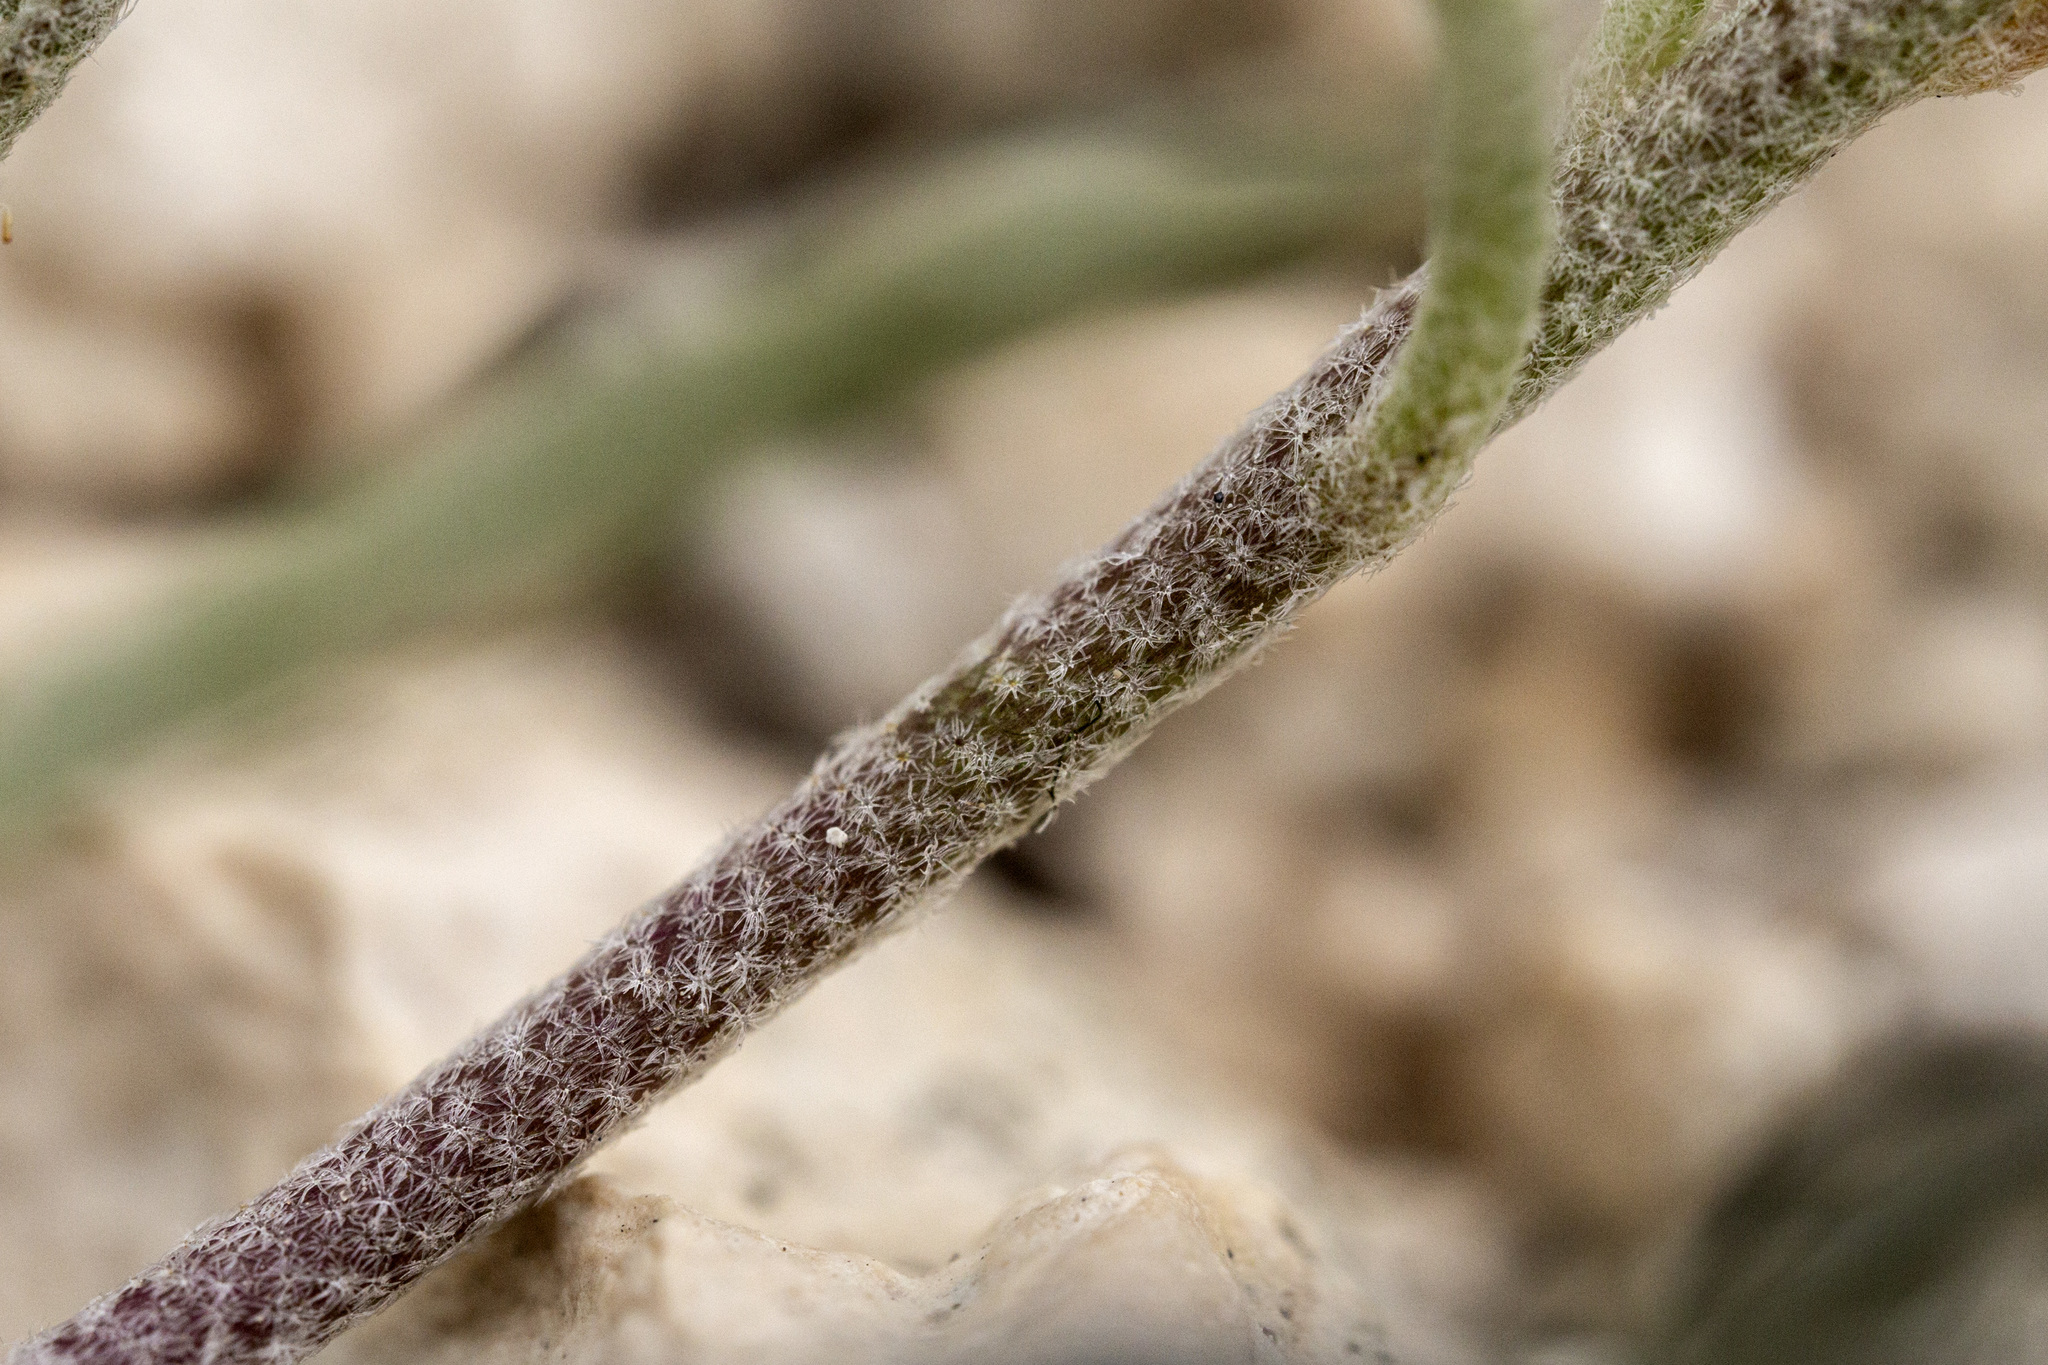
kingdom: Plantae
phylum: Tracheophyta
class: Magnoliopsida
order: Brassicales
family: Brassicaceae
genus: Physaria
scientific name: Physaria ludoviciana
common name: Foothill bladderpod
